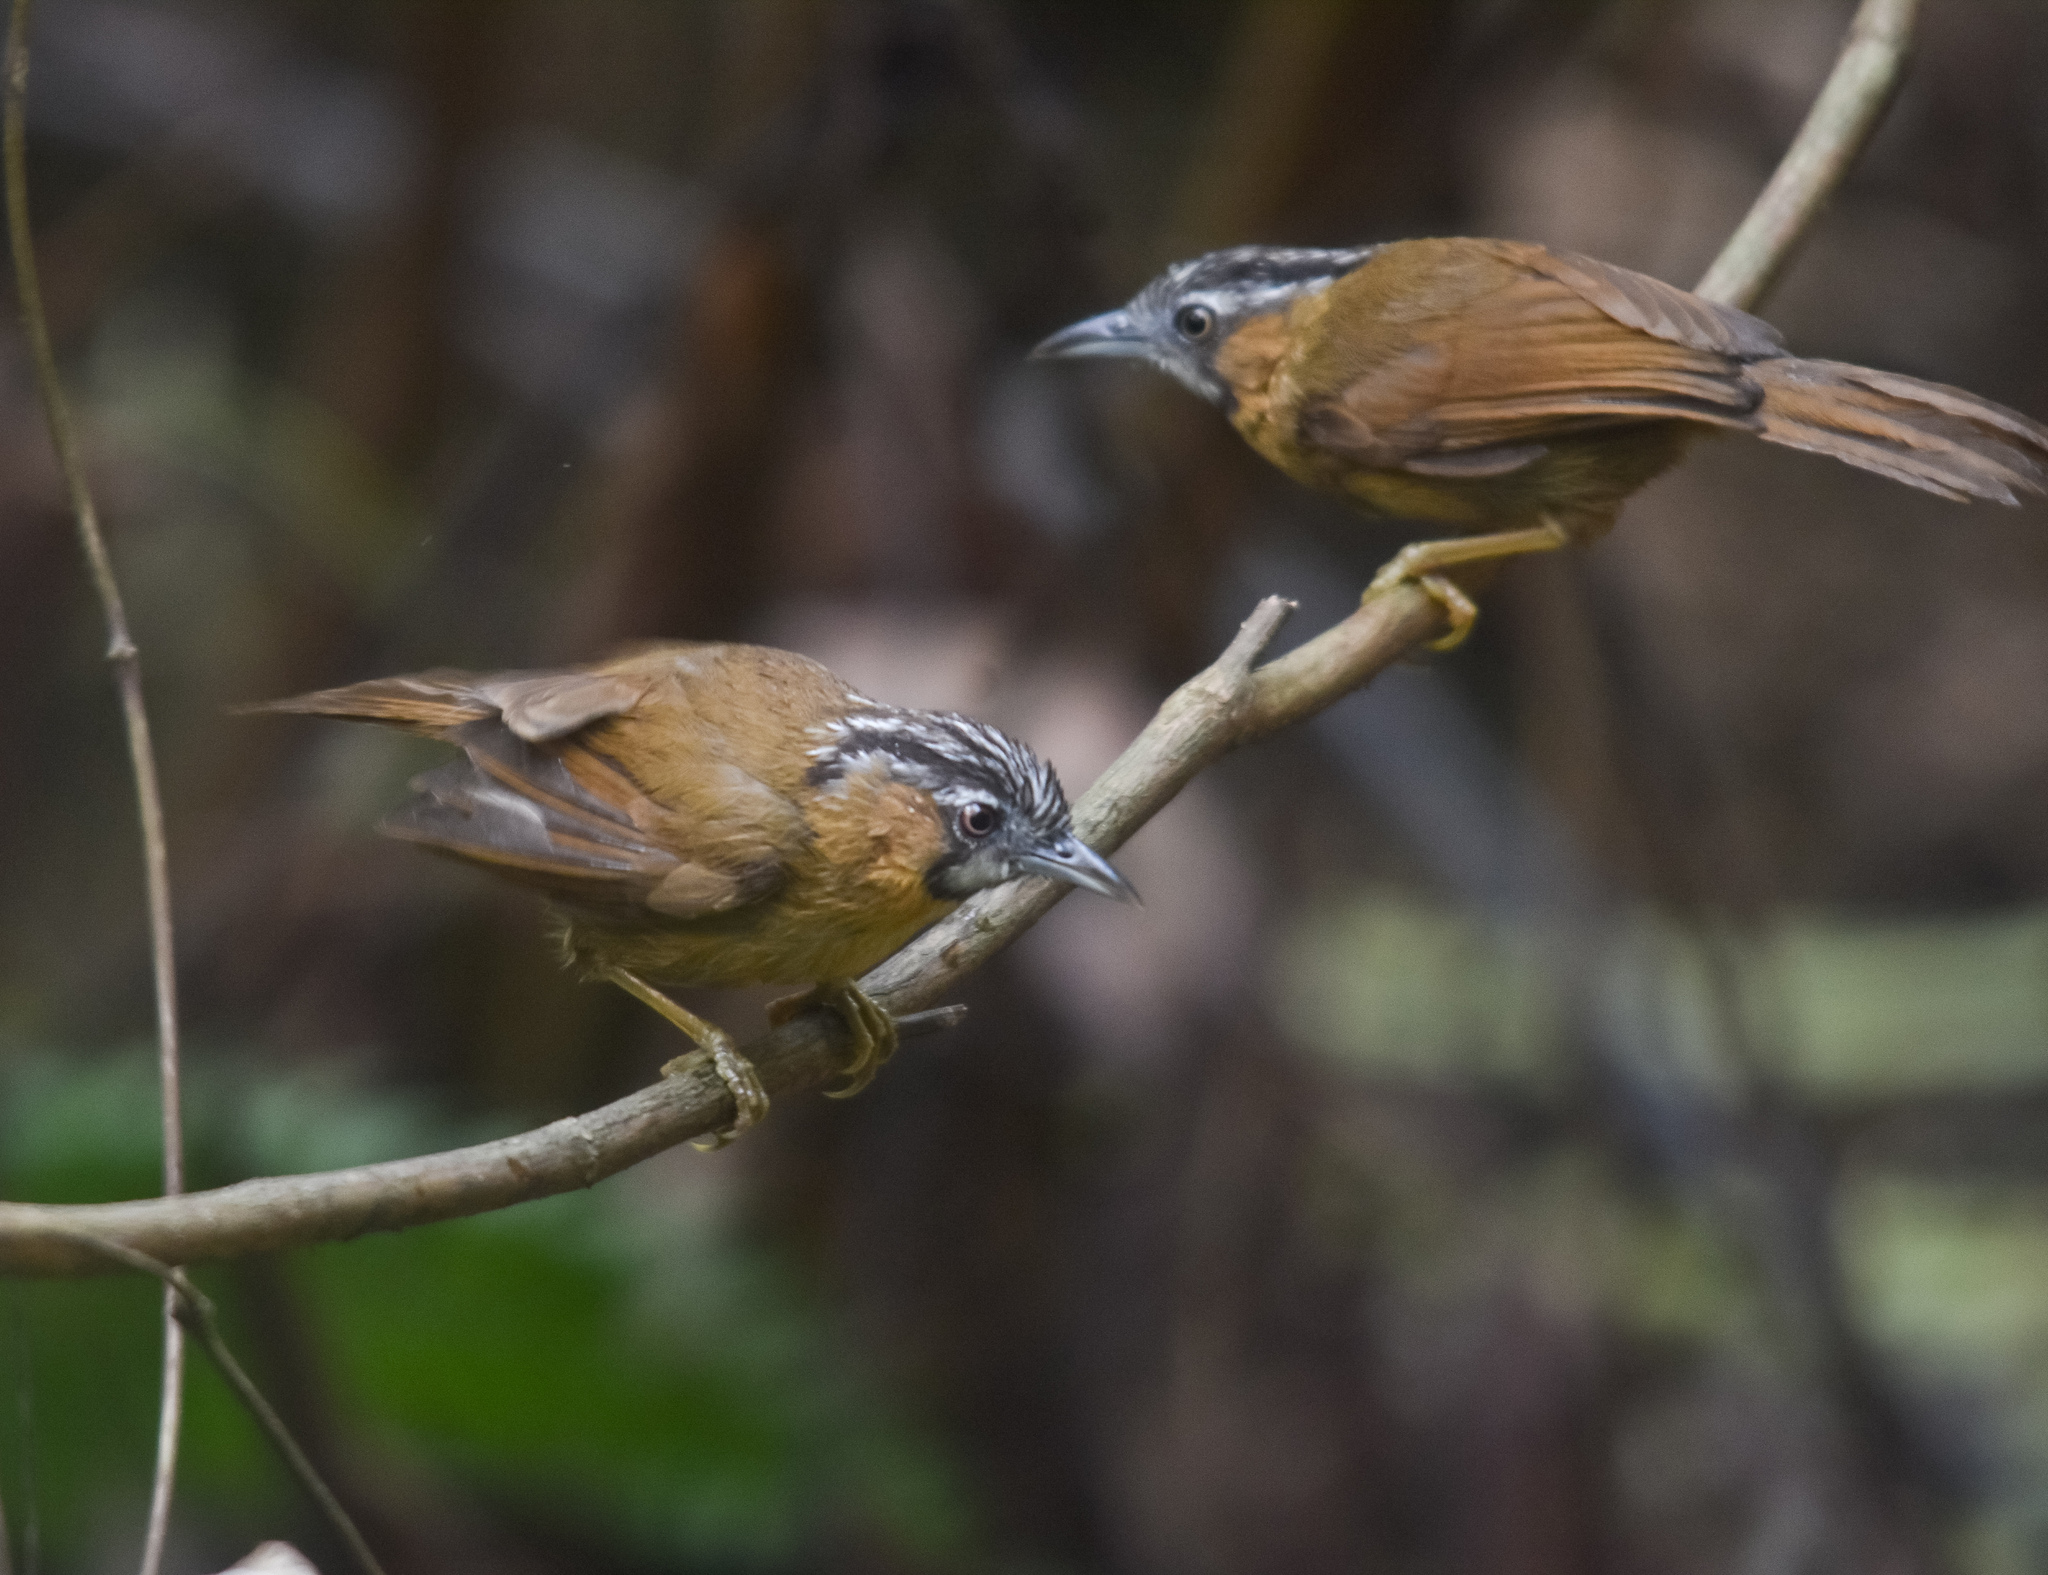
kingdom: Animalia
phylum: Chordata
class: Aves
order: Passeriformes
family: Timaliidae
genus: Stachyris
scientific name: Stachyris nigriceps
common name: Grey-throated babbler
